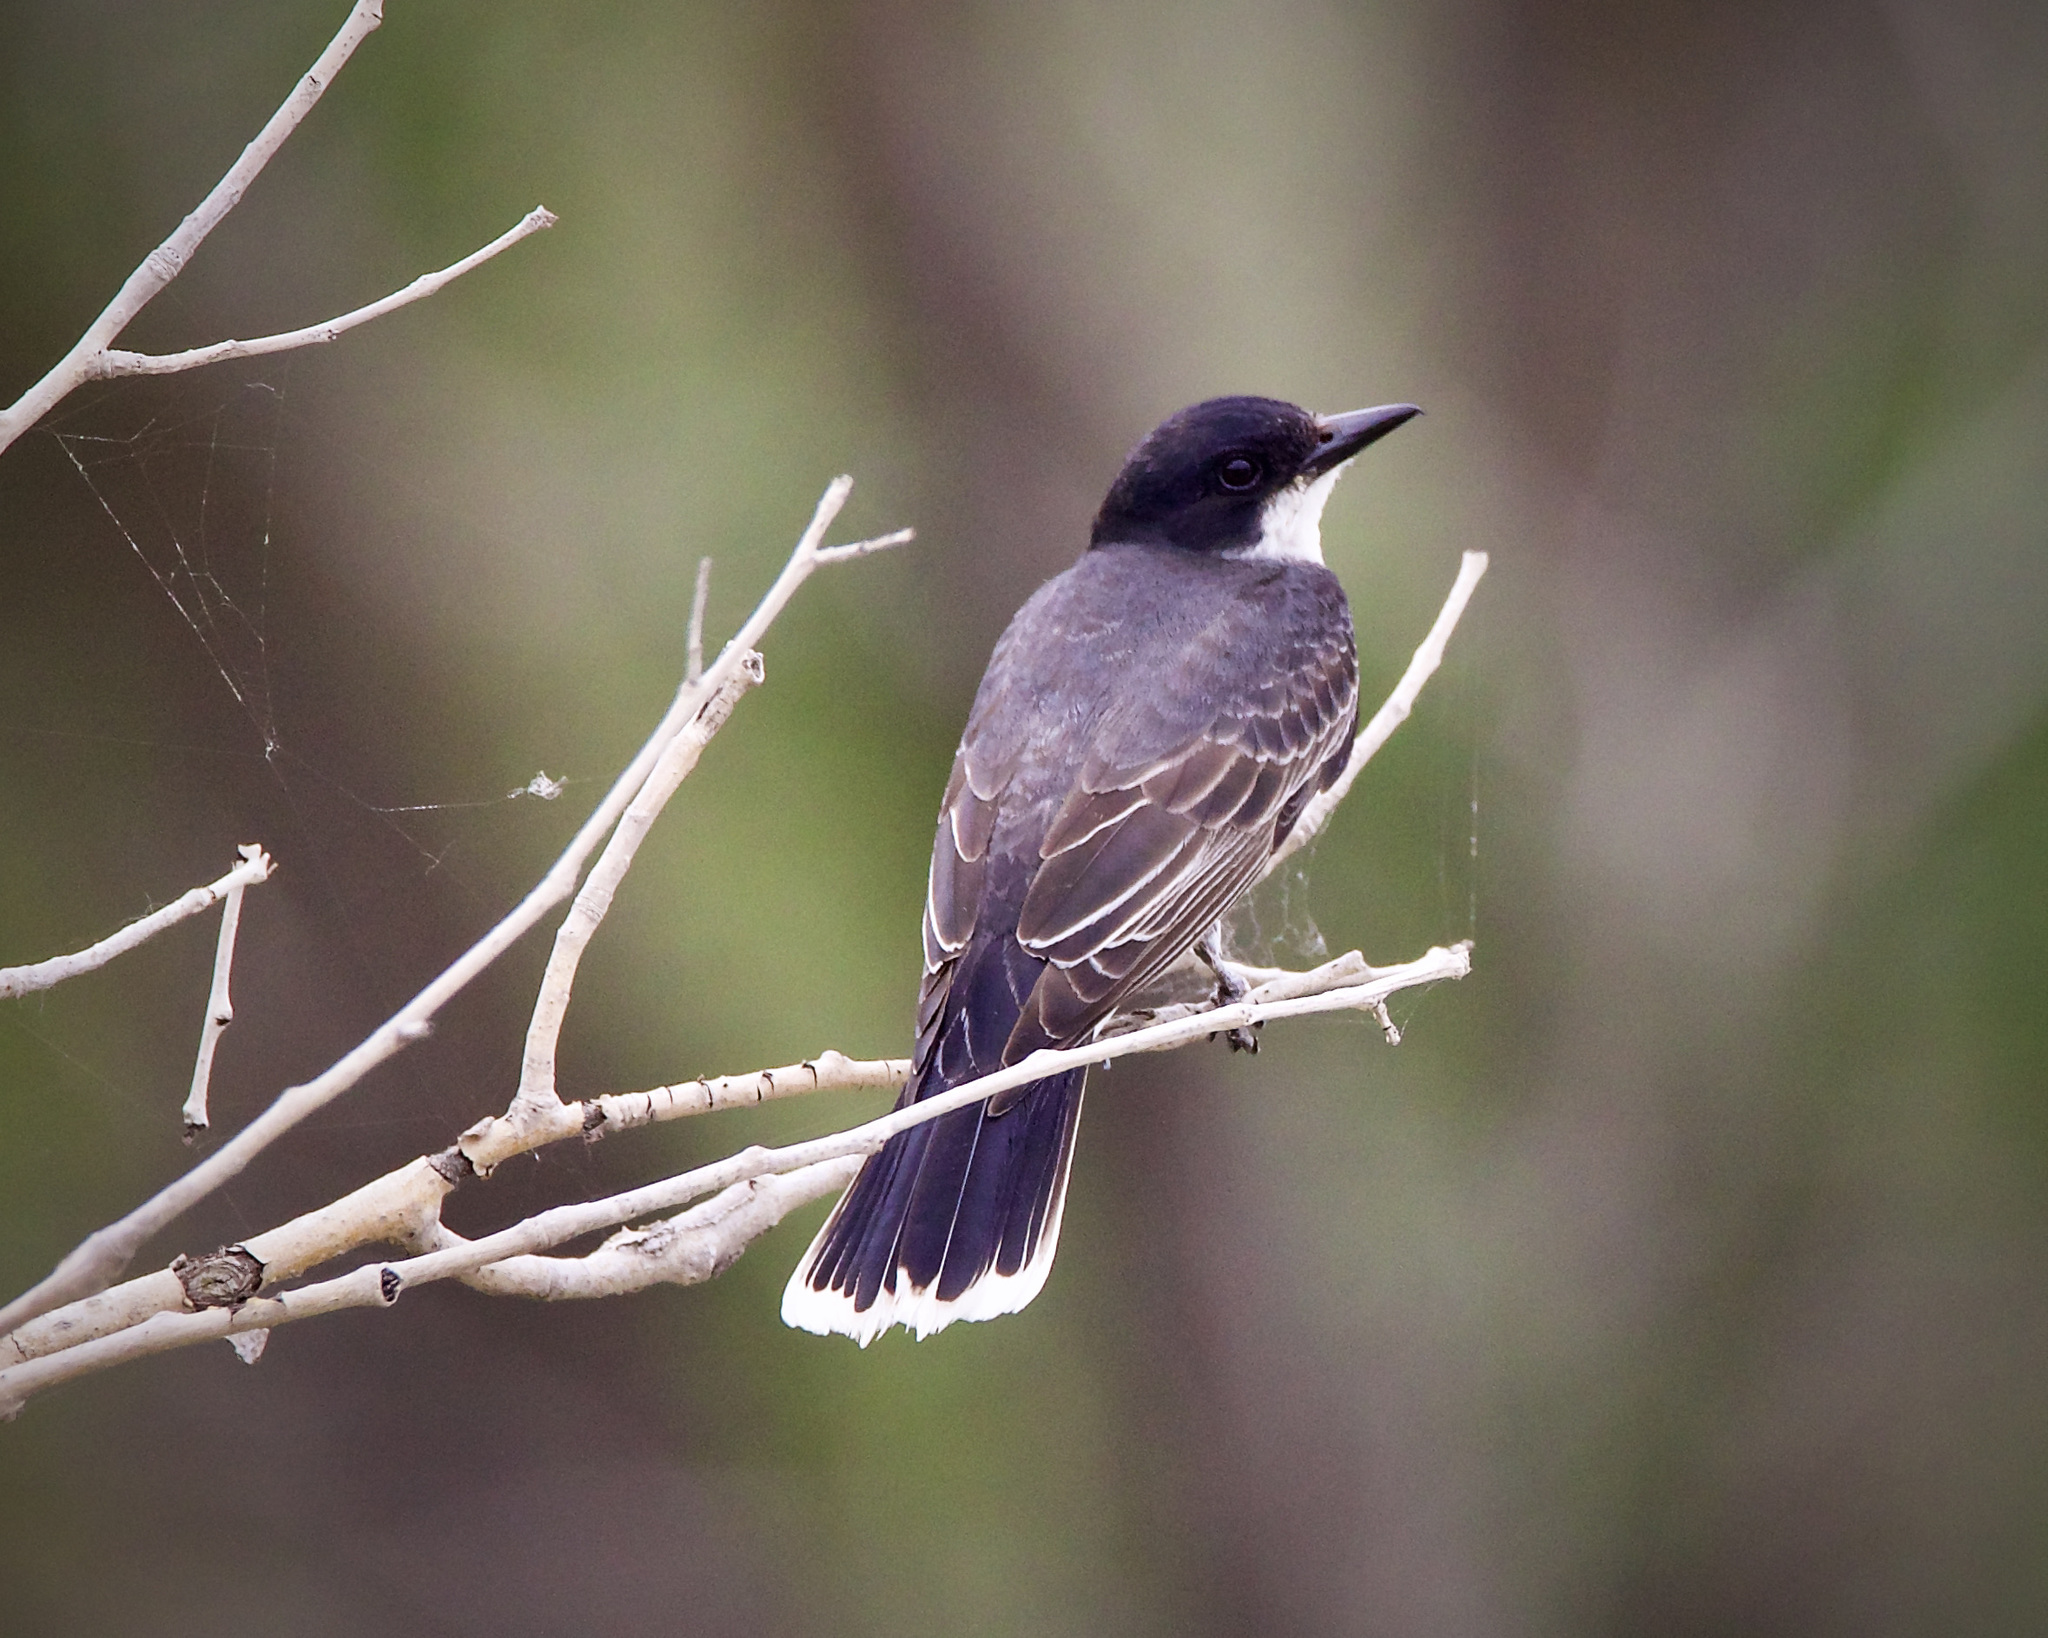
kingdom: Animalia
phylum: Chordata
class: Aves
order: Passeriformes
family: Tyrannidae
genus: Tyrannus
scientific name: Tyrannus tyrannus
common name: Eastern kingbird
